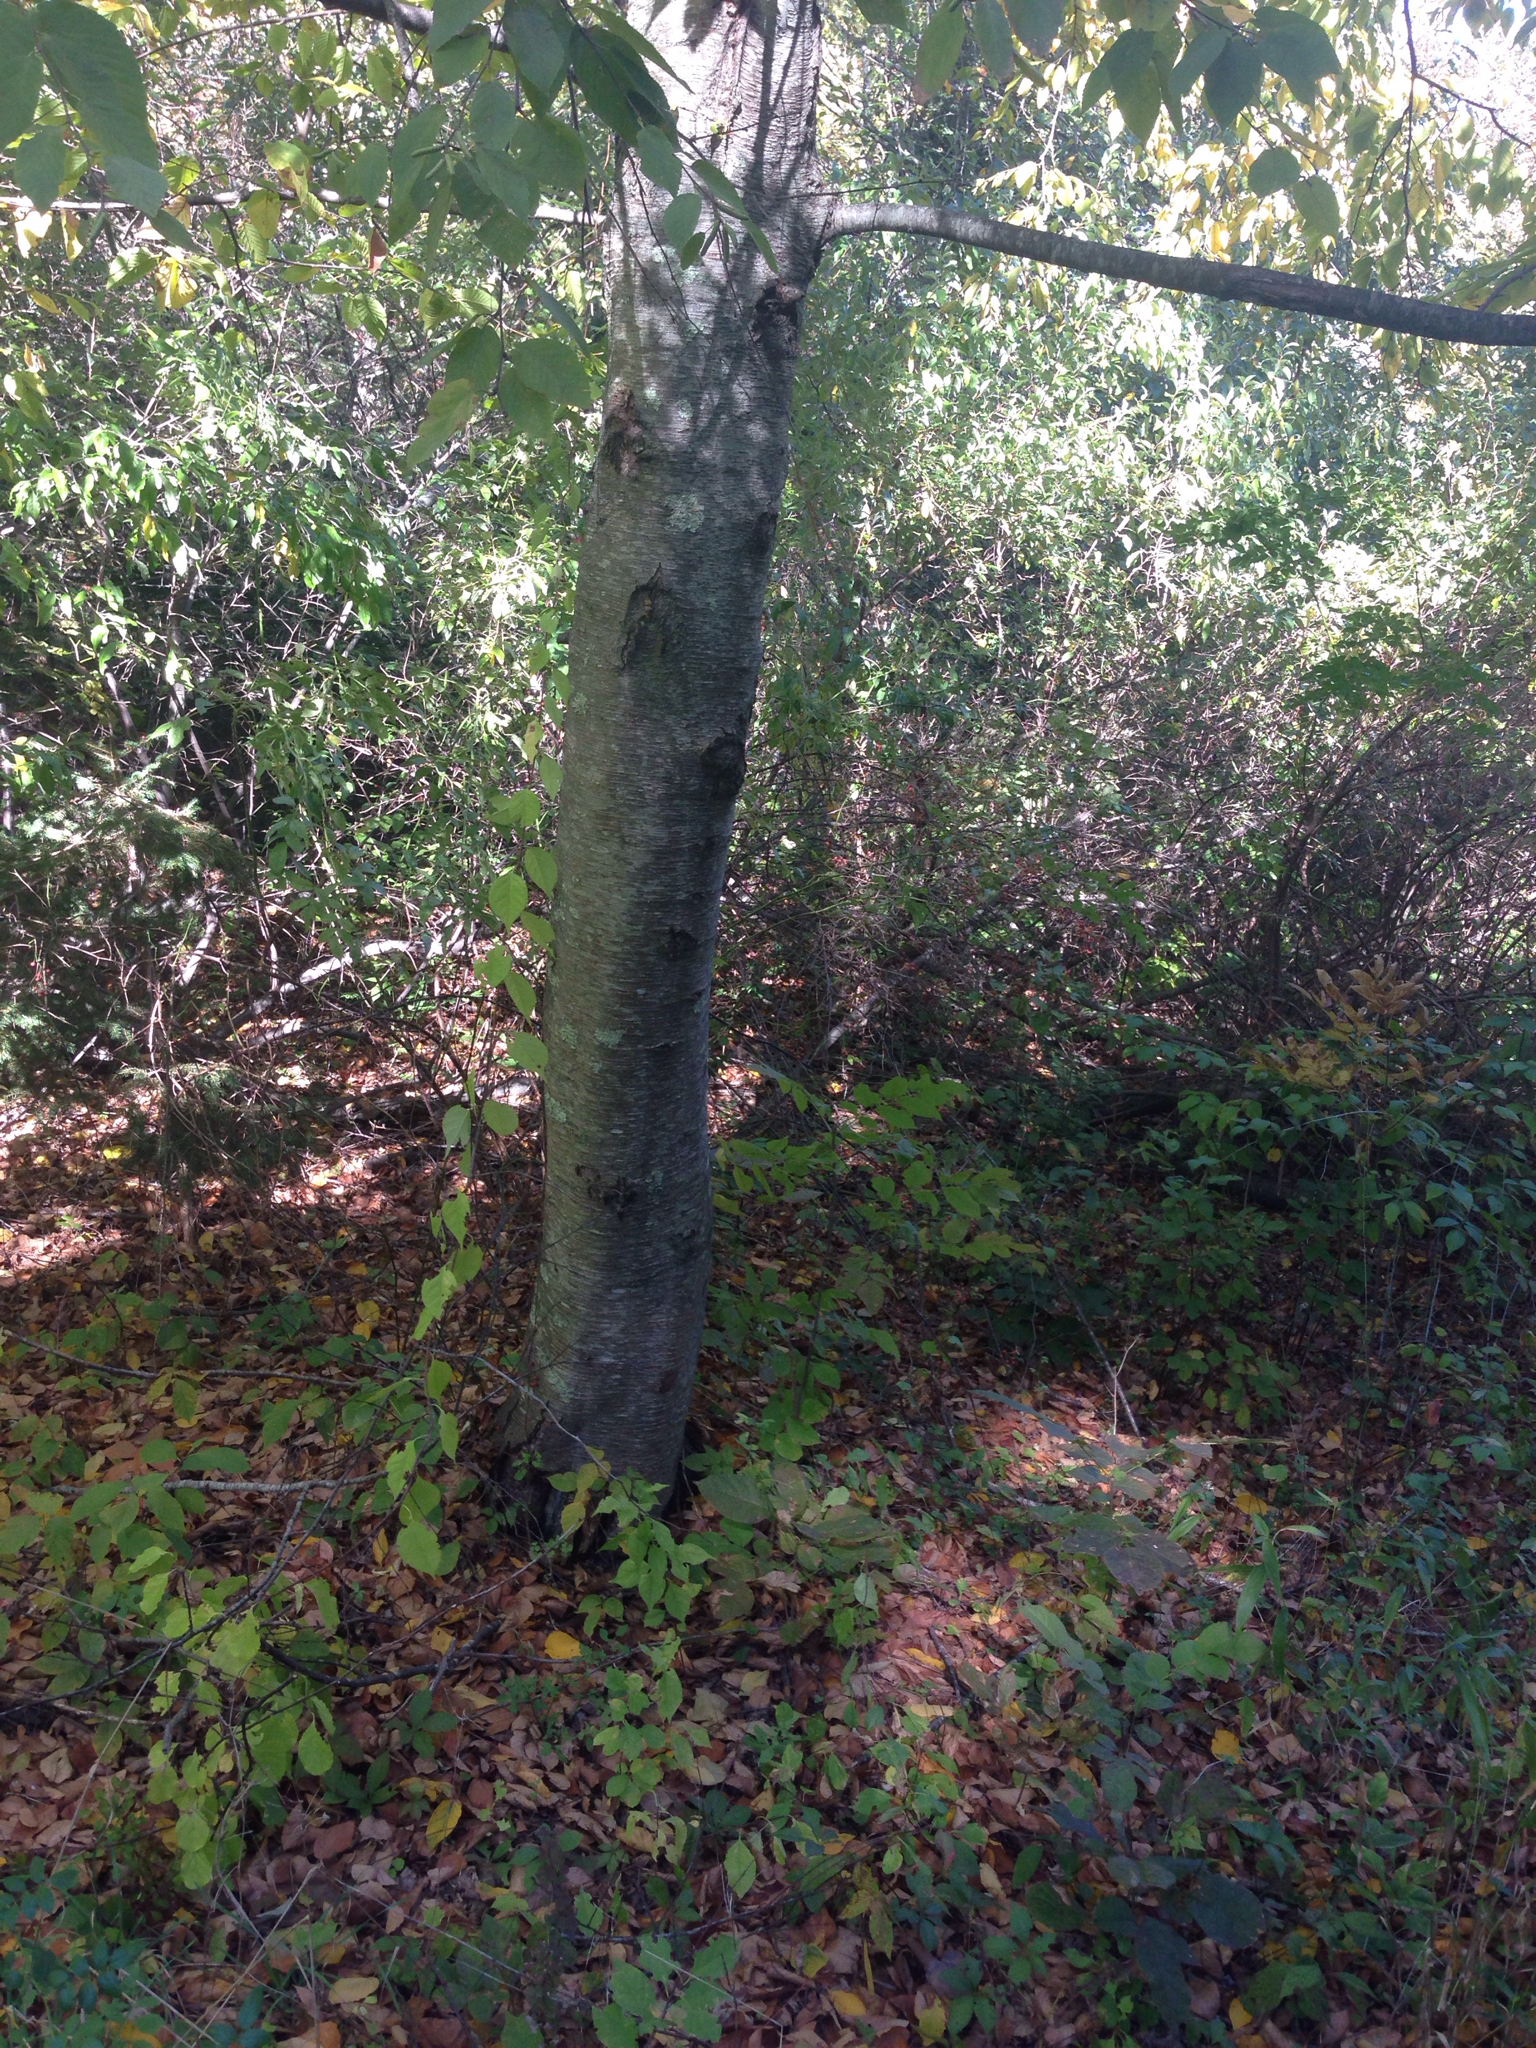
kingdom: Plantae
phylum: Tracheophyta
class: Magnoliopsida
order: Fagales
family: Betulaceae
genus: Betula
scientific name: Betula lenta
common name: Black birch
